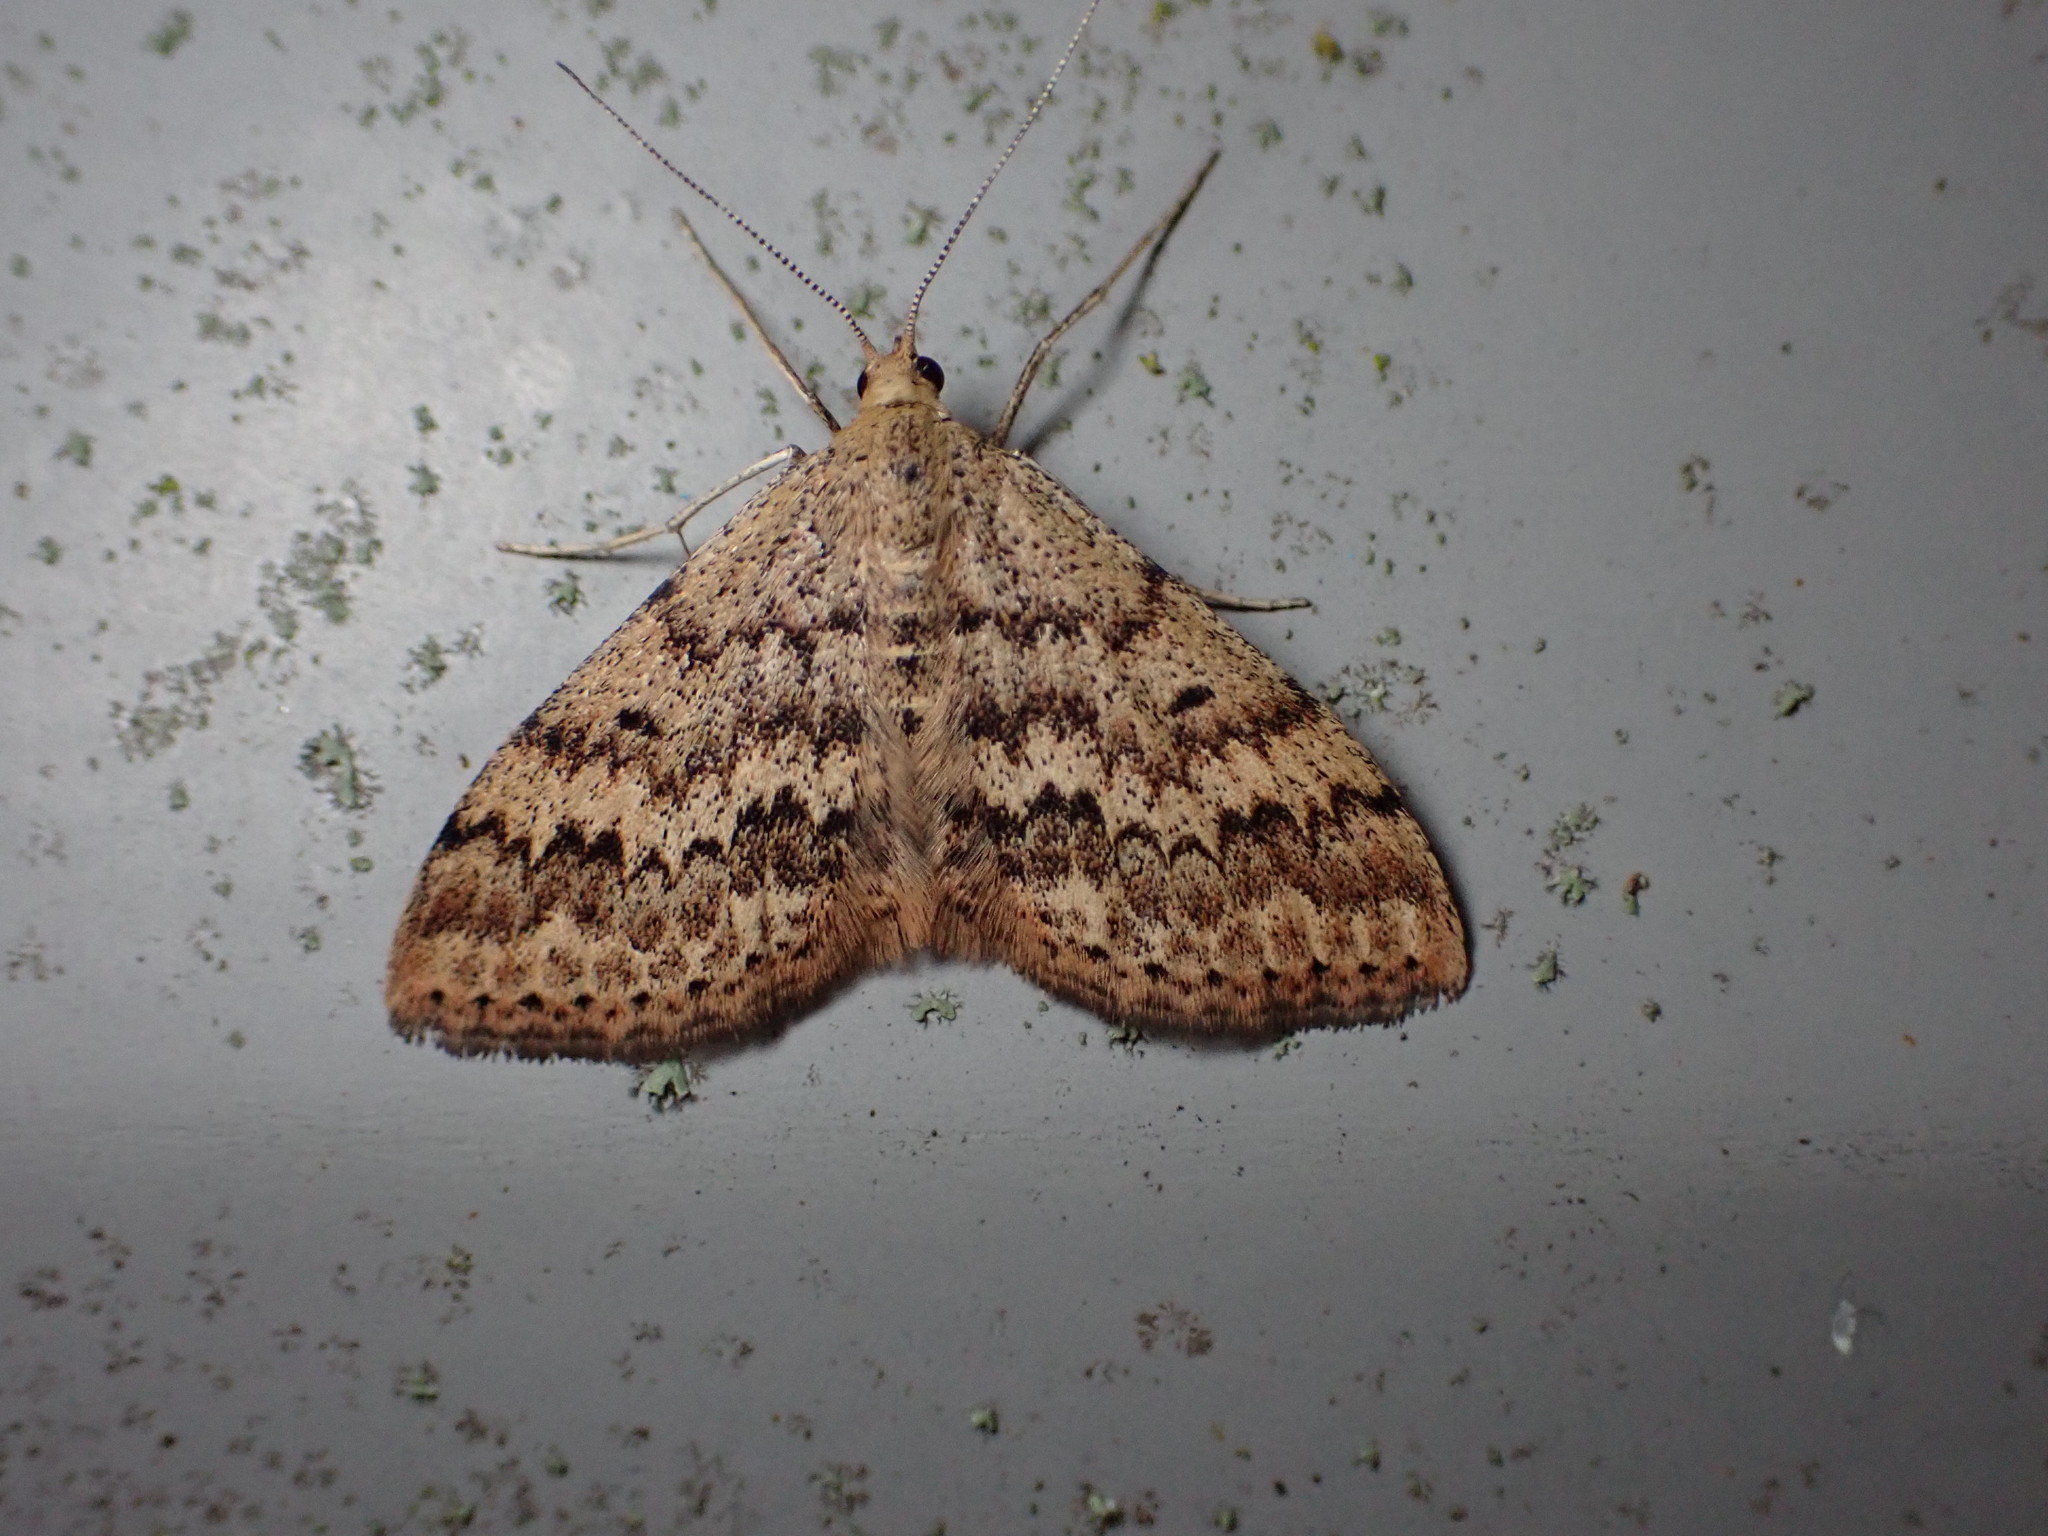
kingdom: Animalia
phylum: Arthropoda
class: Insecta
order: Lepidoptera
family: Geometridae
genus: Scopula
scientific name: Scopula rubraria
